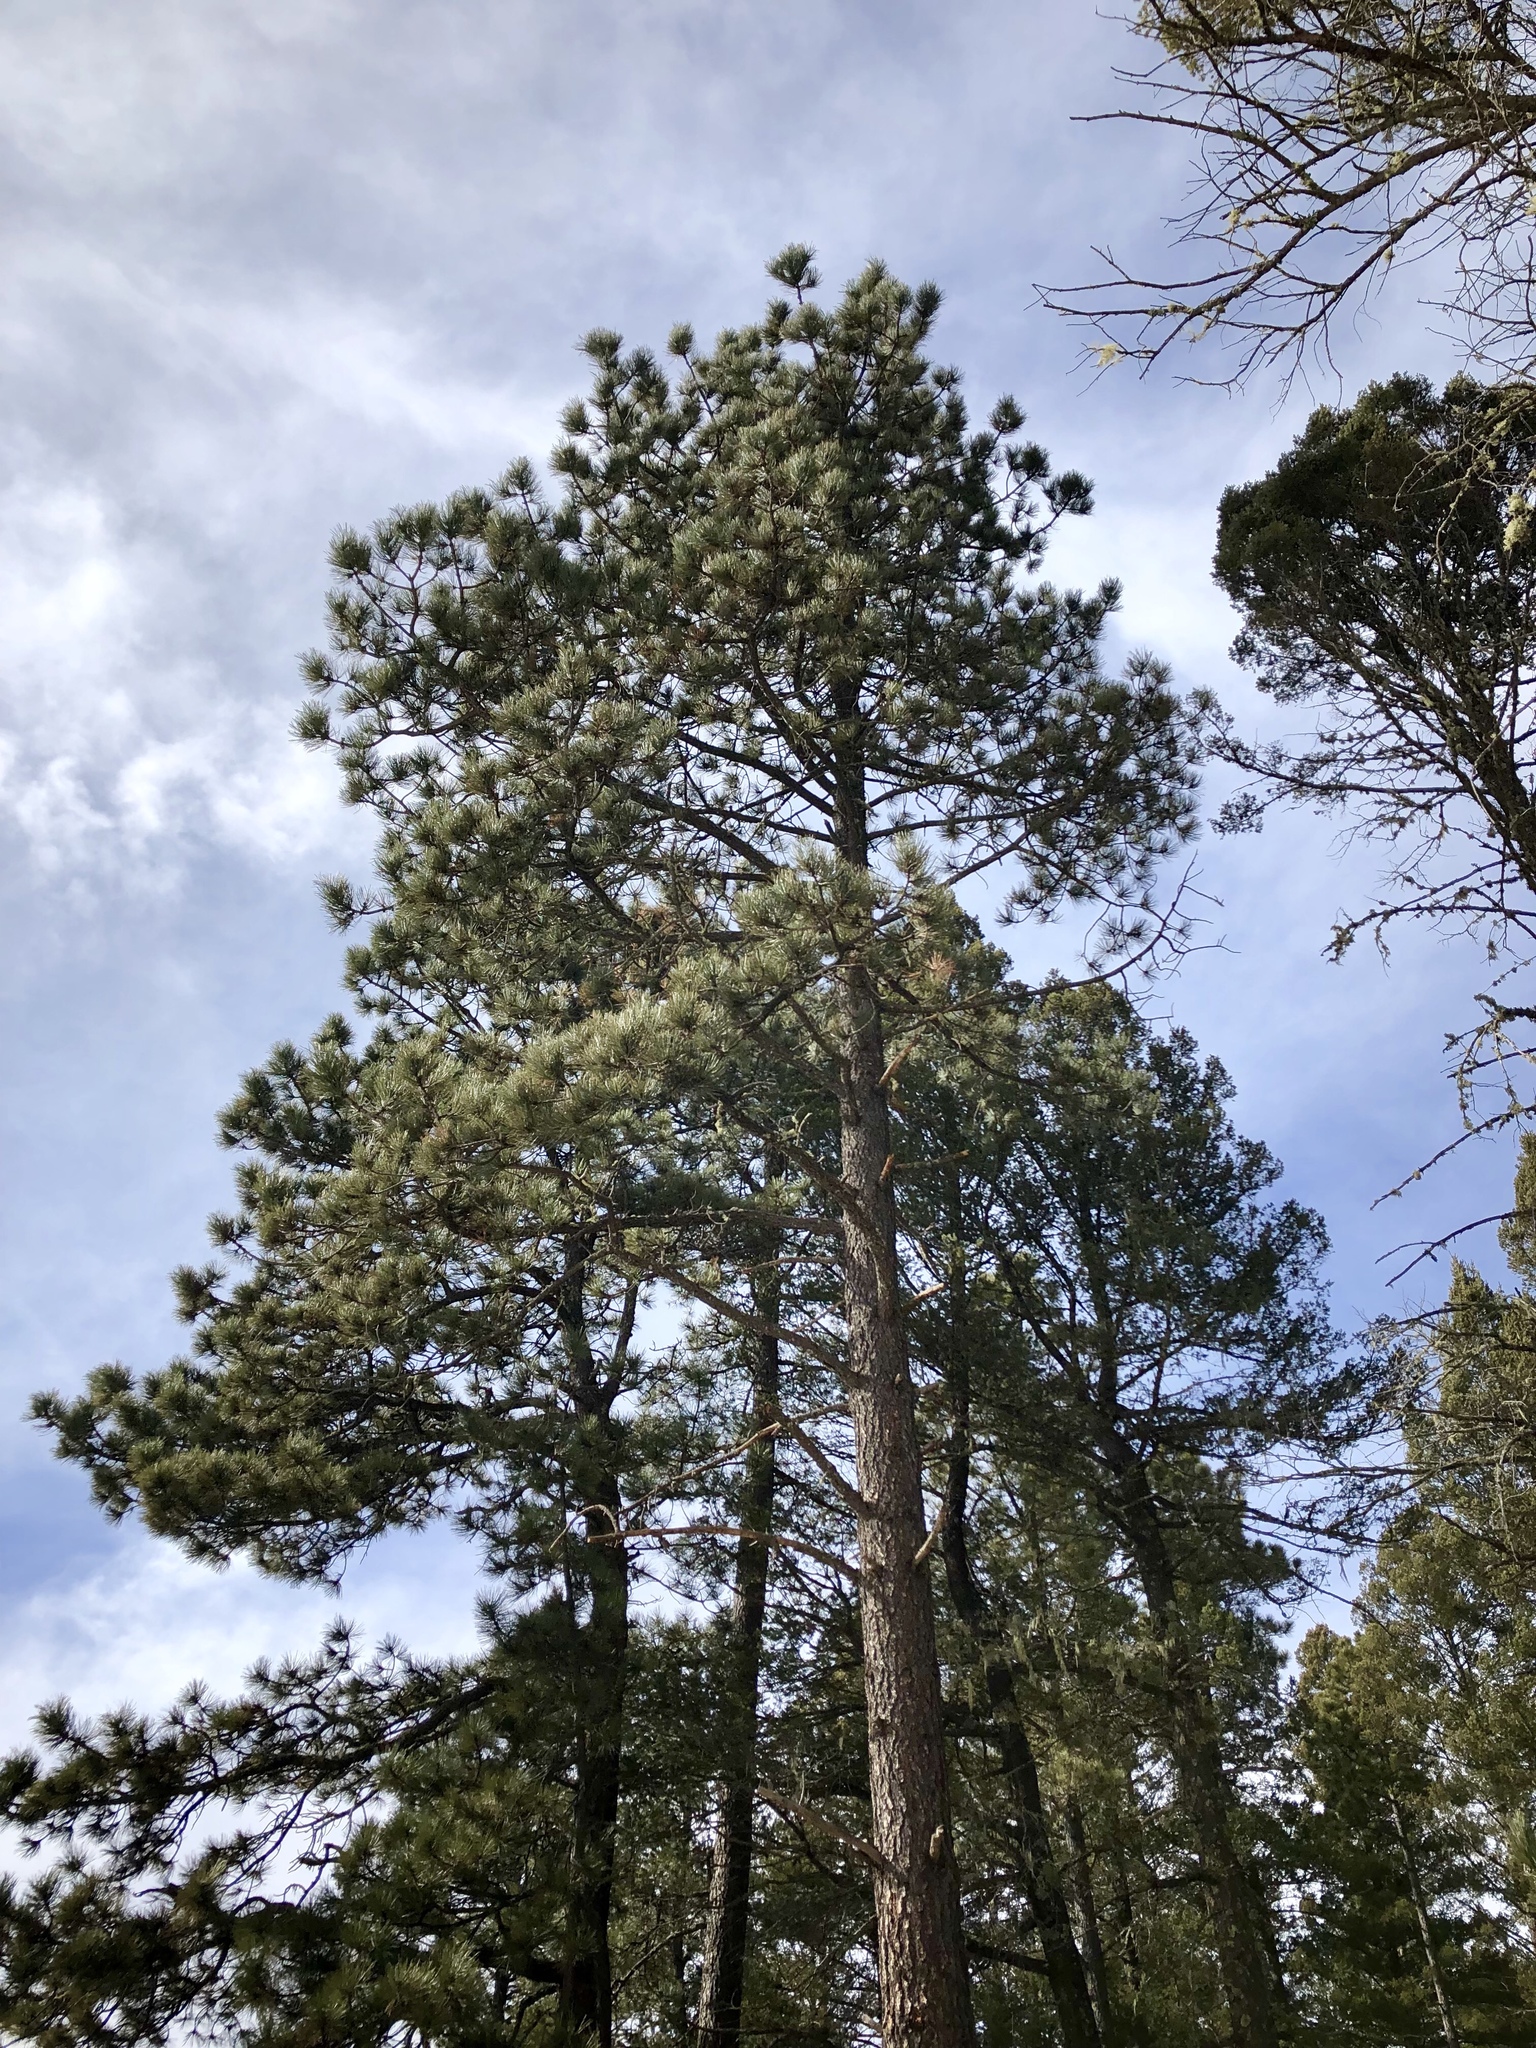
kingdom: Plantae
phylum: Tracheophyta
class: Pinopsida
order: Pinales
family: Pinaceae
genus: Pinus
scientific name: Pinus ponderosa
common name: Western yellow-pine
